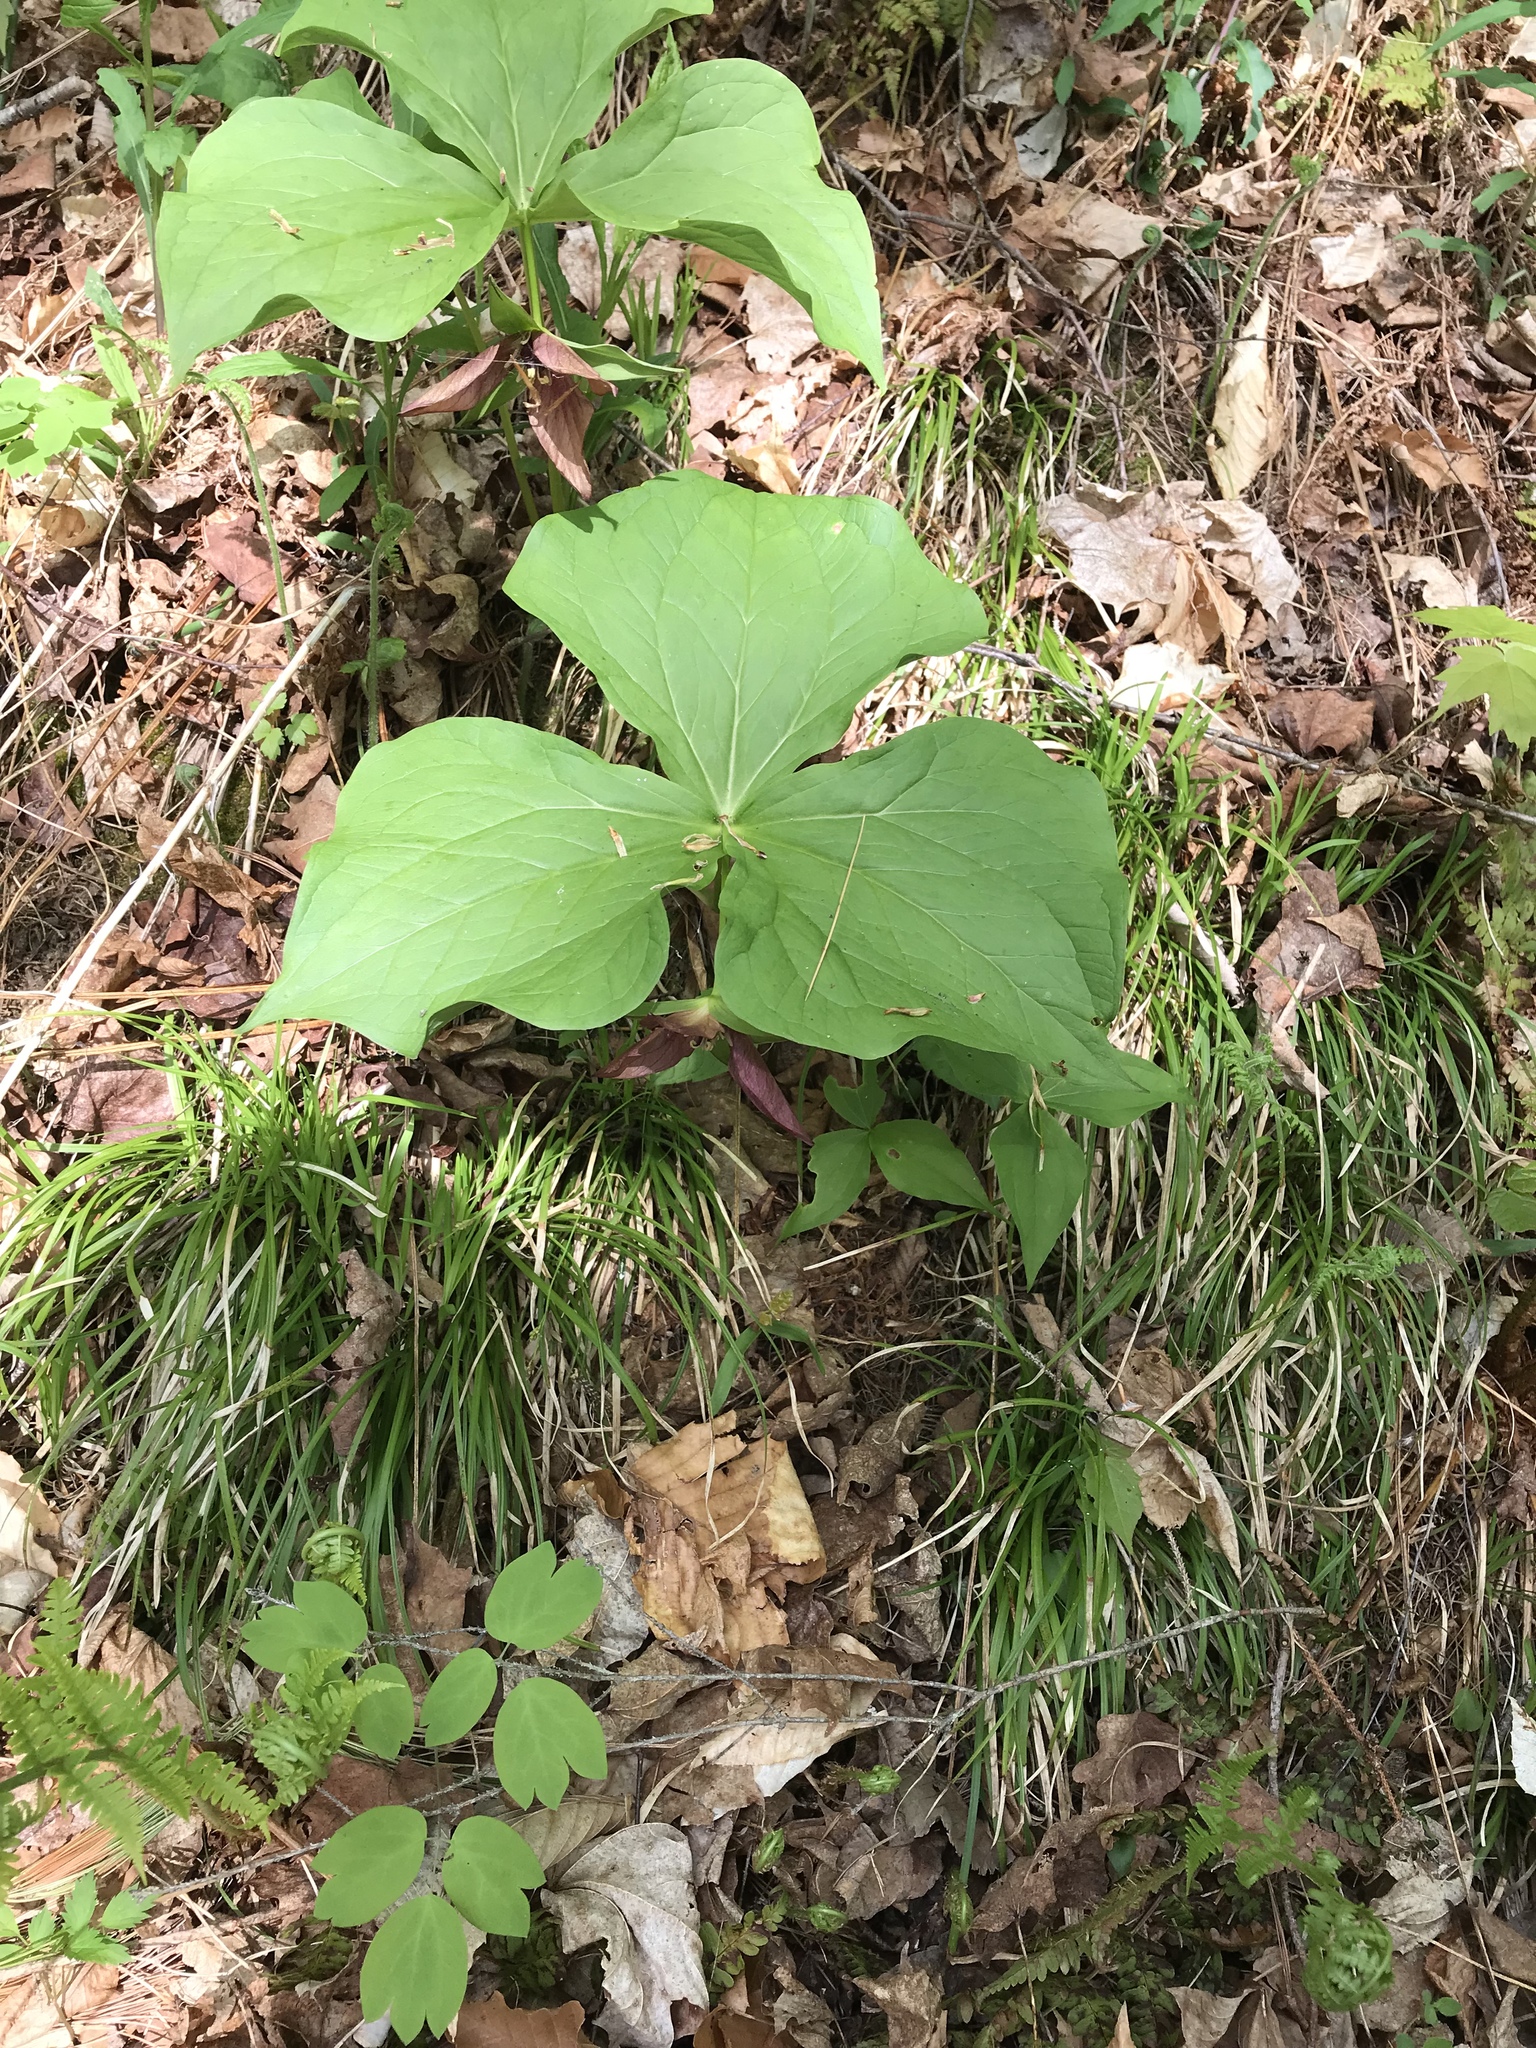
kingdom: Plantae
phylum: Tracheophyta
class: Liliopsida
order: Liliales
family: Melanthiaceae
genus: Trillium
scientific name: Trillium erectum
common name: Purple trillium
